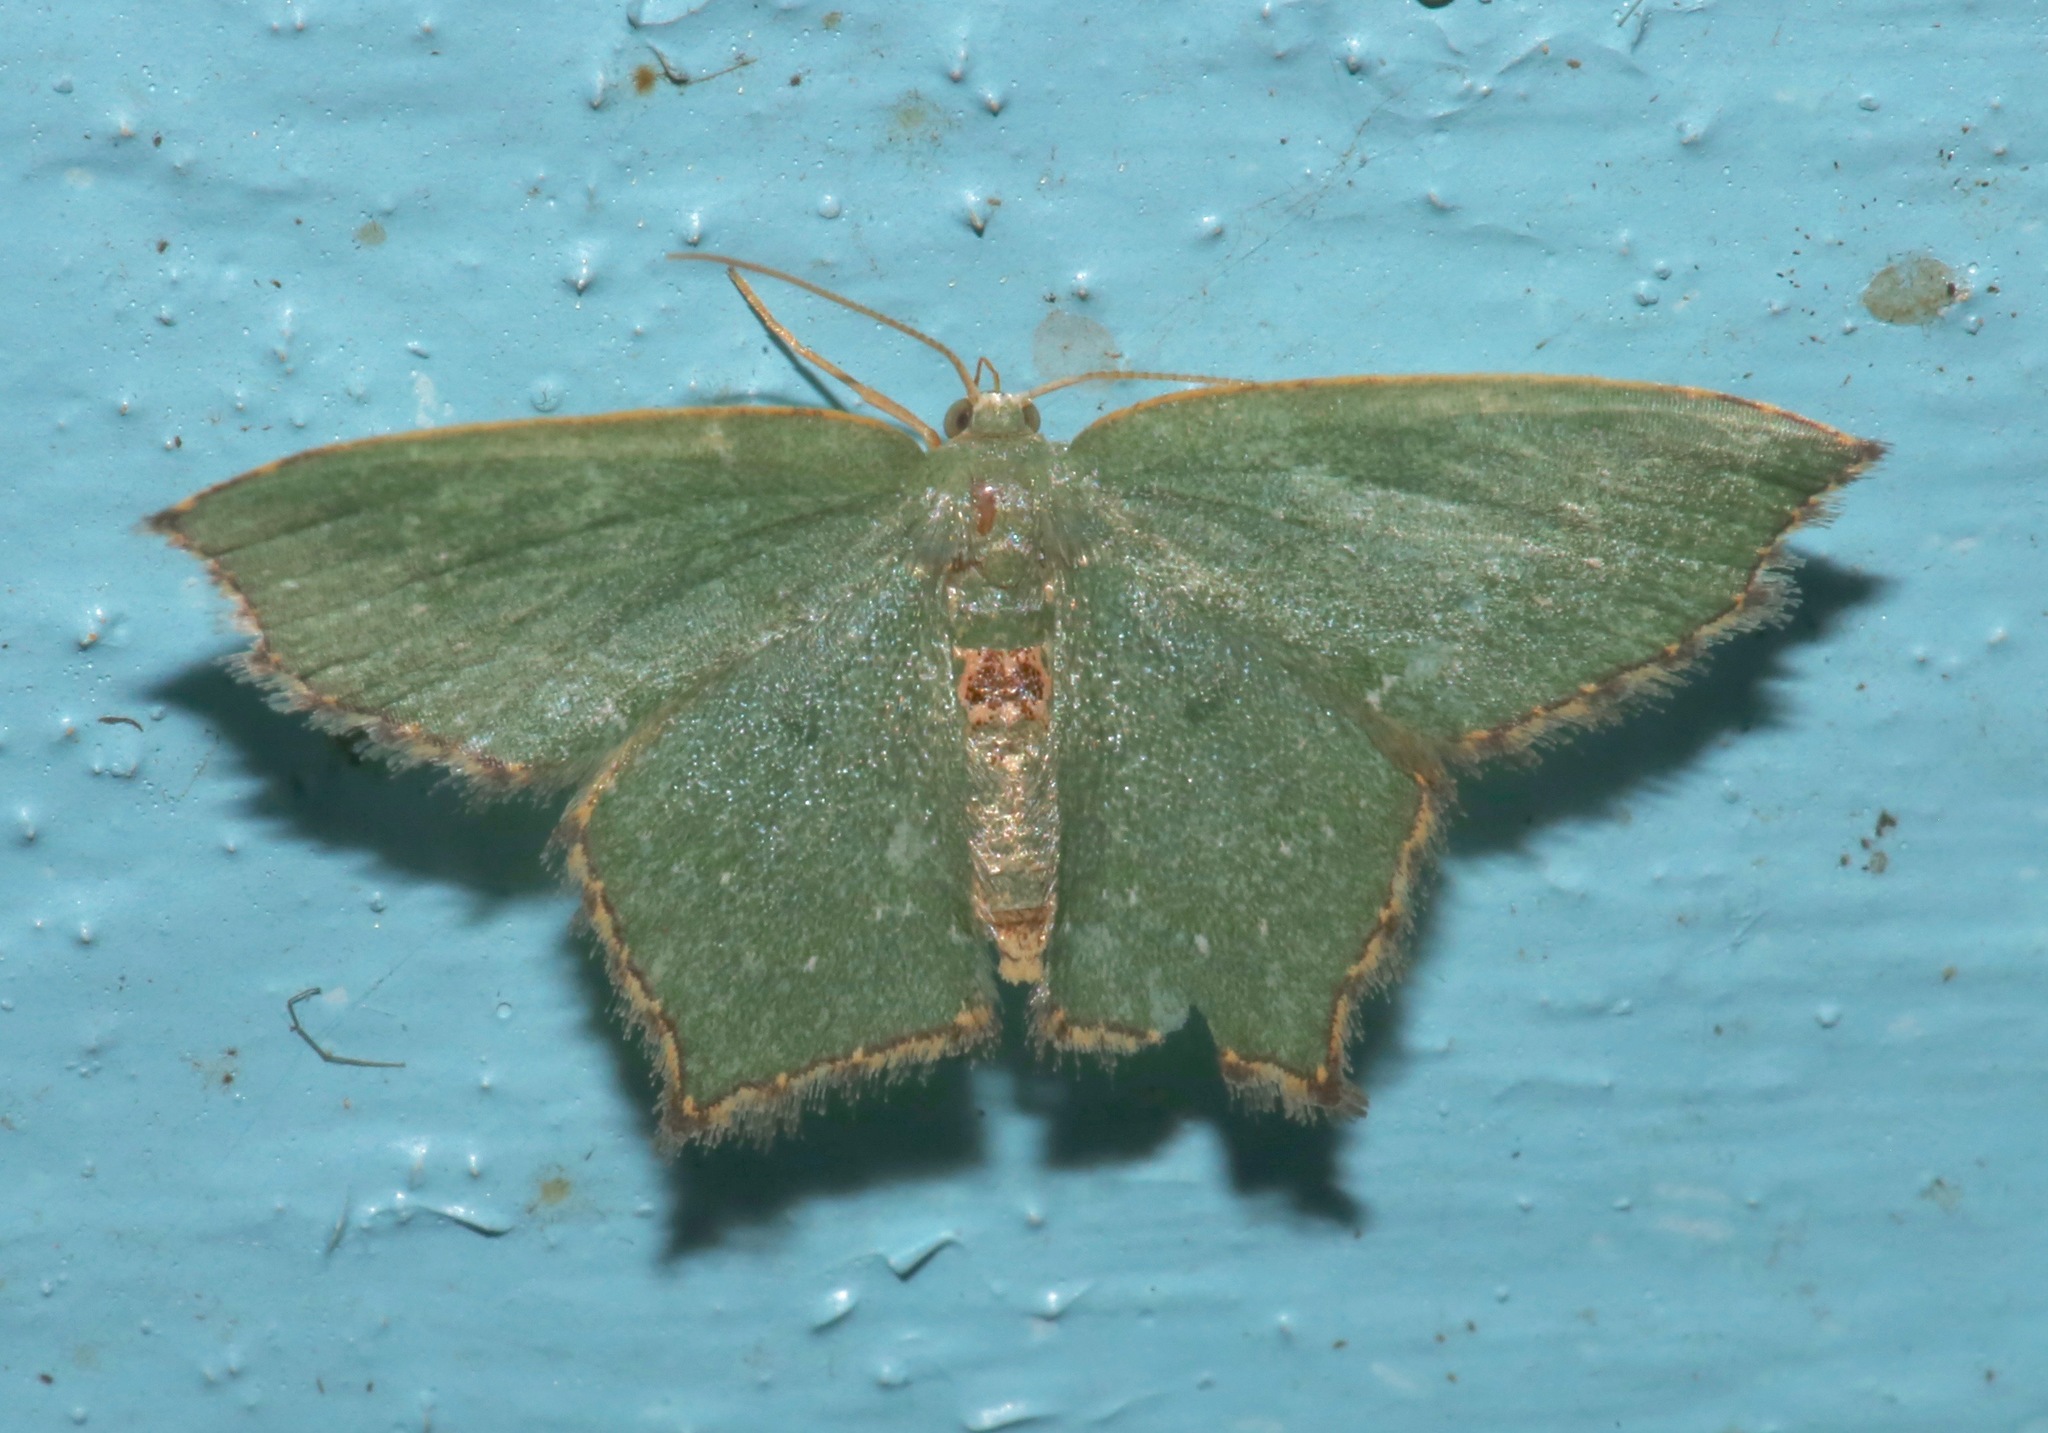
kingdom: Animalia
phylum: Arthropoda
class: Insecta
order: Lepidoptera
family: Geometridae
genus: Chloropteryx
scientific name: Chloropteryx tepperaria
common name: Angle winged emerald moth
